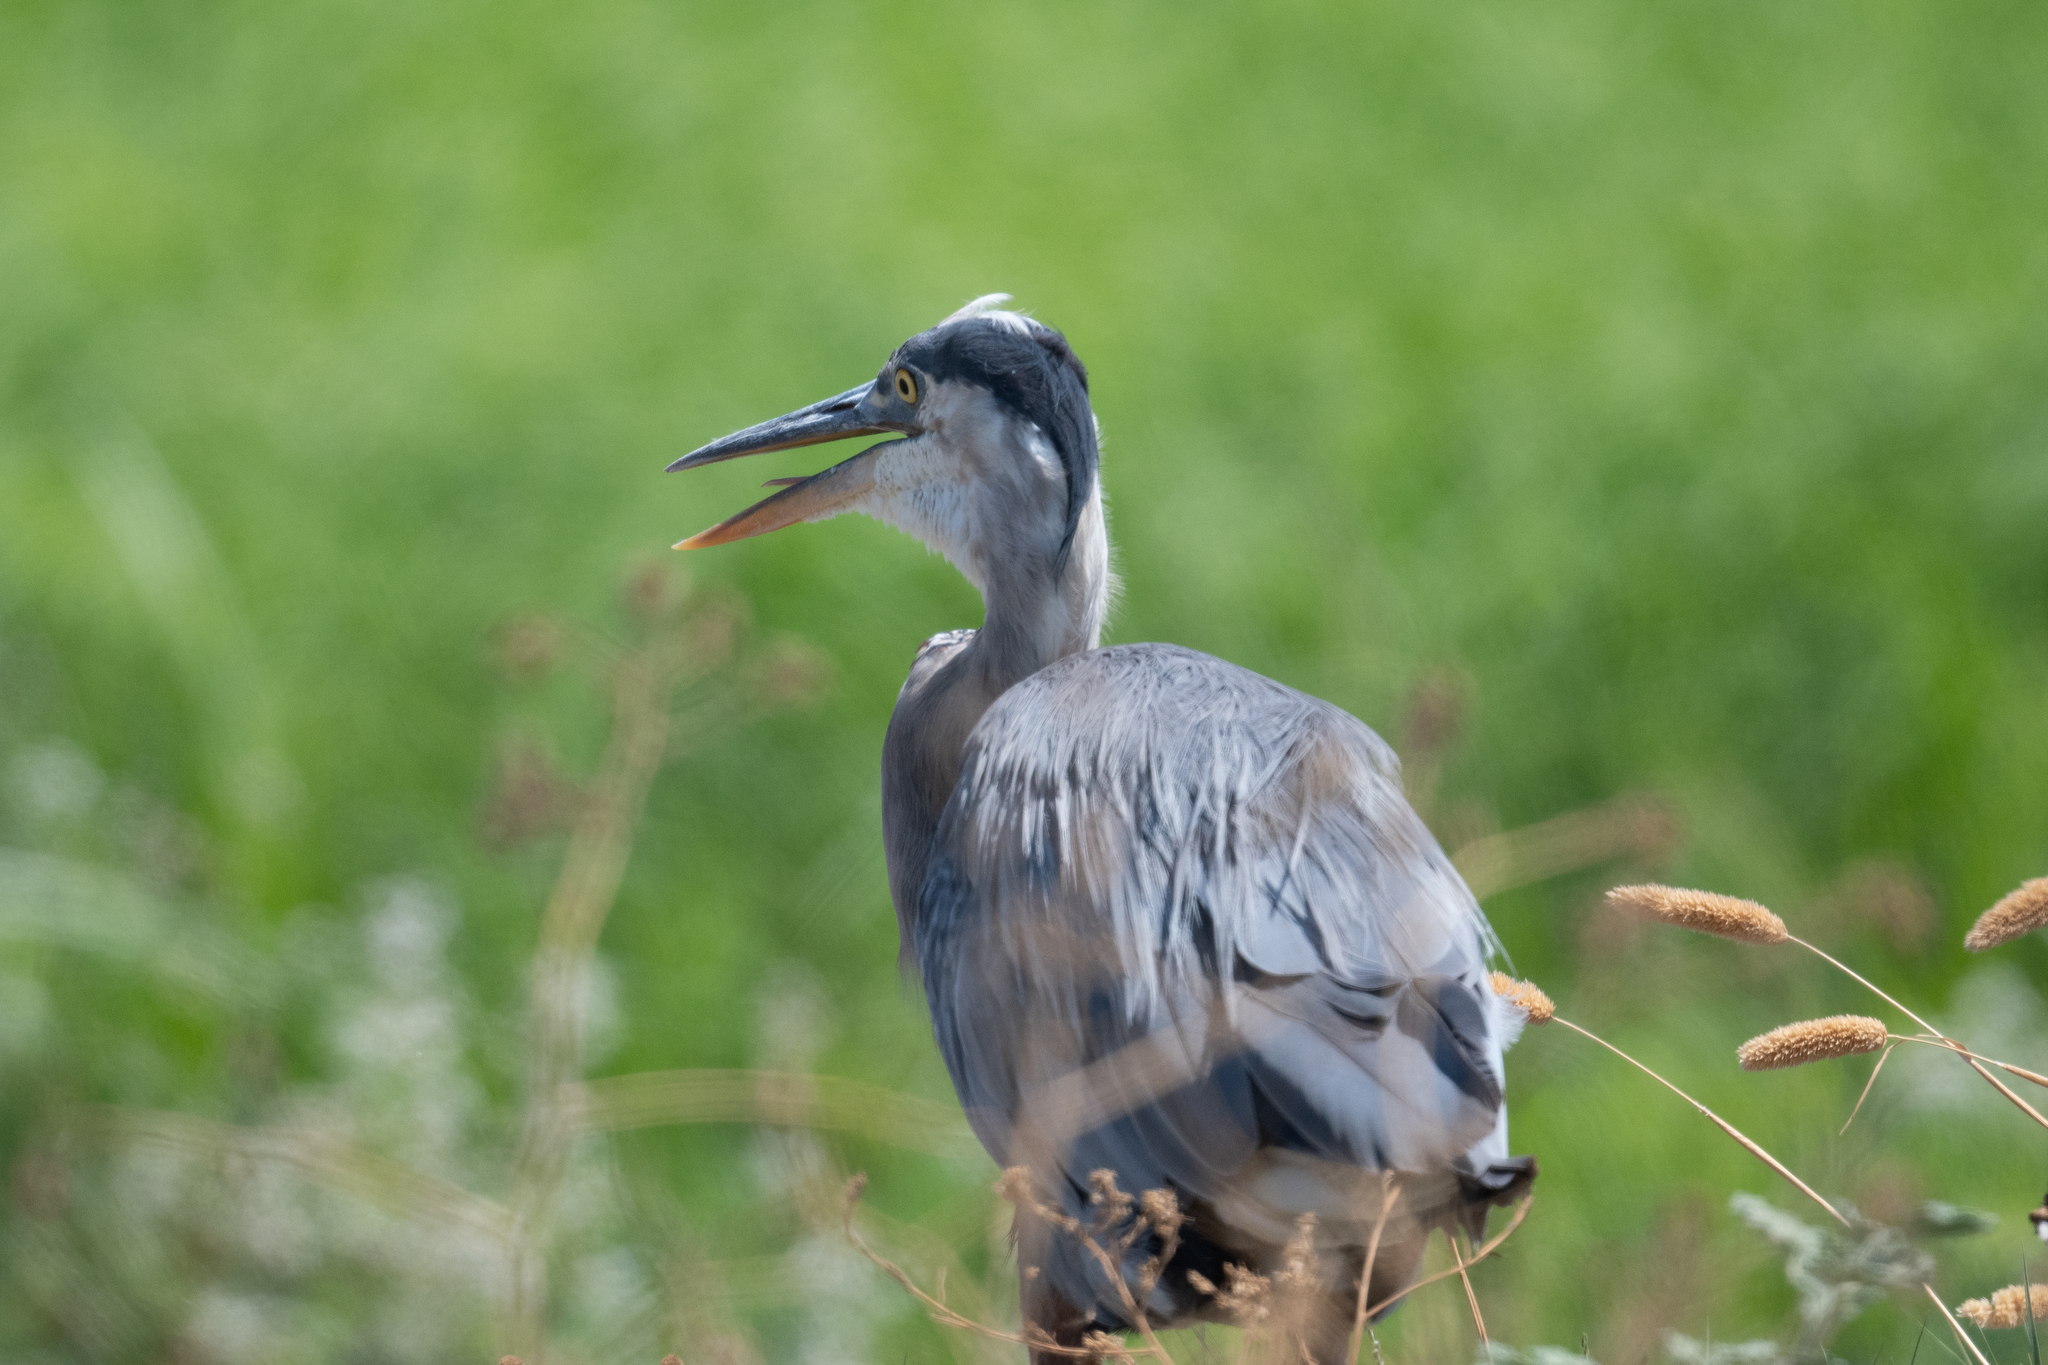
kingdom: Animalia
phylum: Chordata
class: Aves
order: Pelecaniformes
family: Ardeidae
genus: Ardea
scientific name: Ardea herodias
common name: Great blue heron
